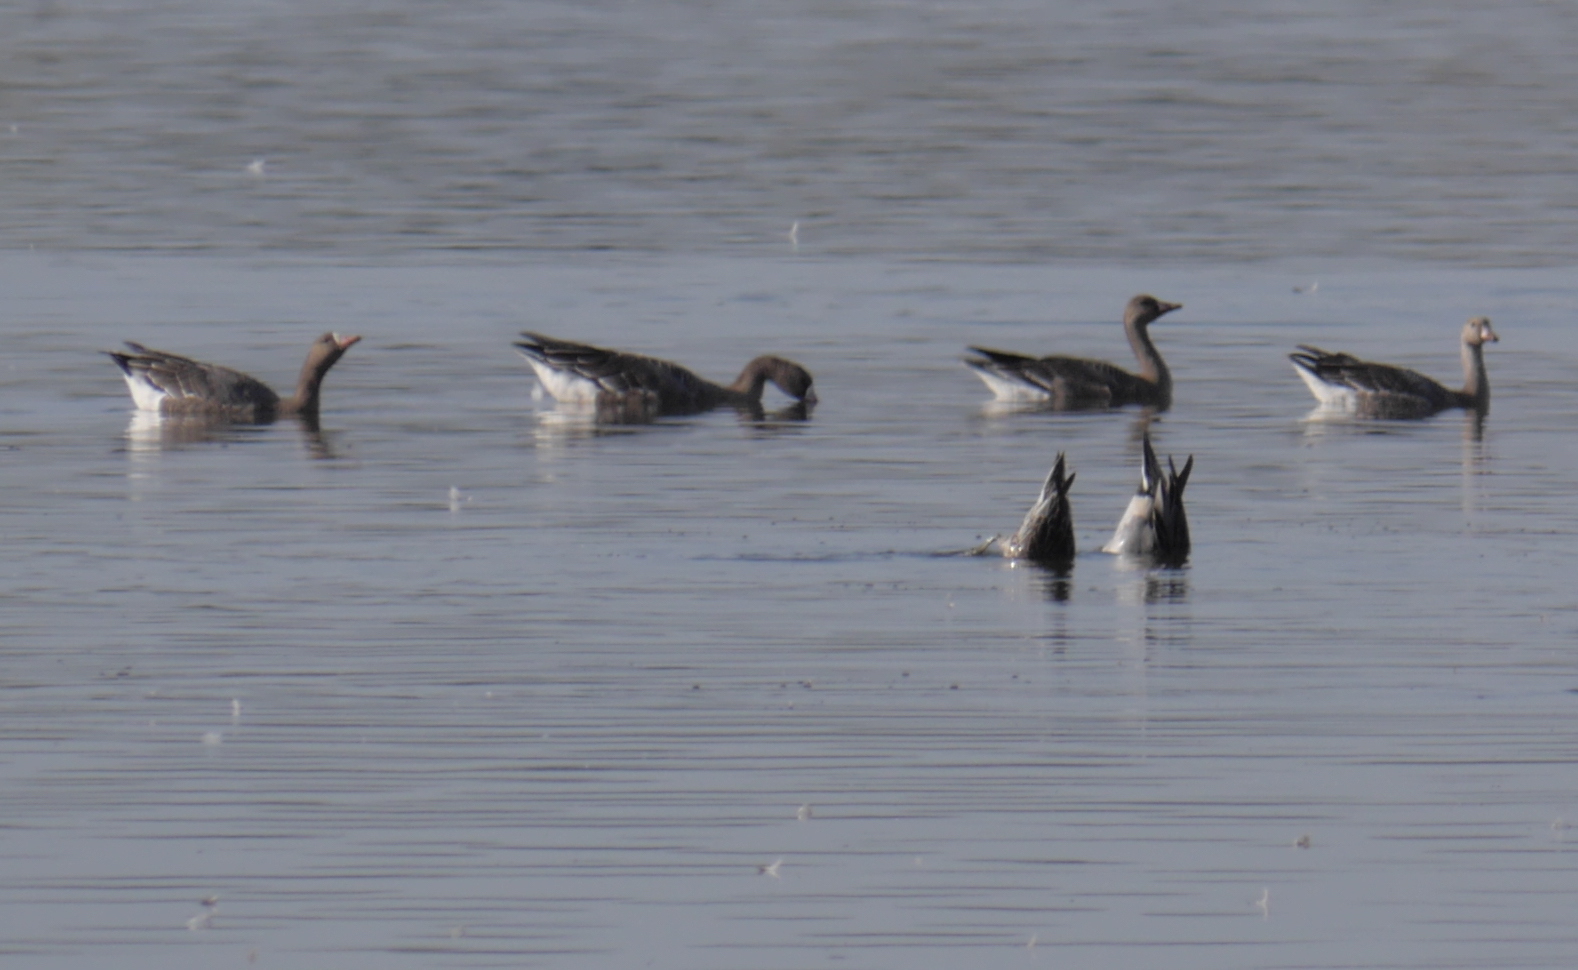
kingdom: Animalia
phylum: Chordata
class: Aves
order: Anseriformes
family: Anatidae
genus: Anser
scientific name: Anser albifrons
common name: Greater white-fronted goose
